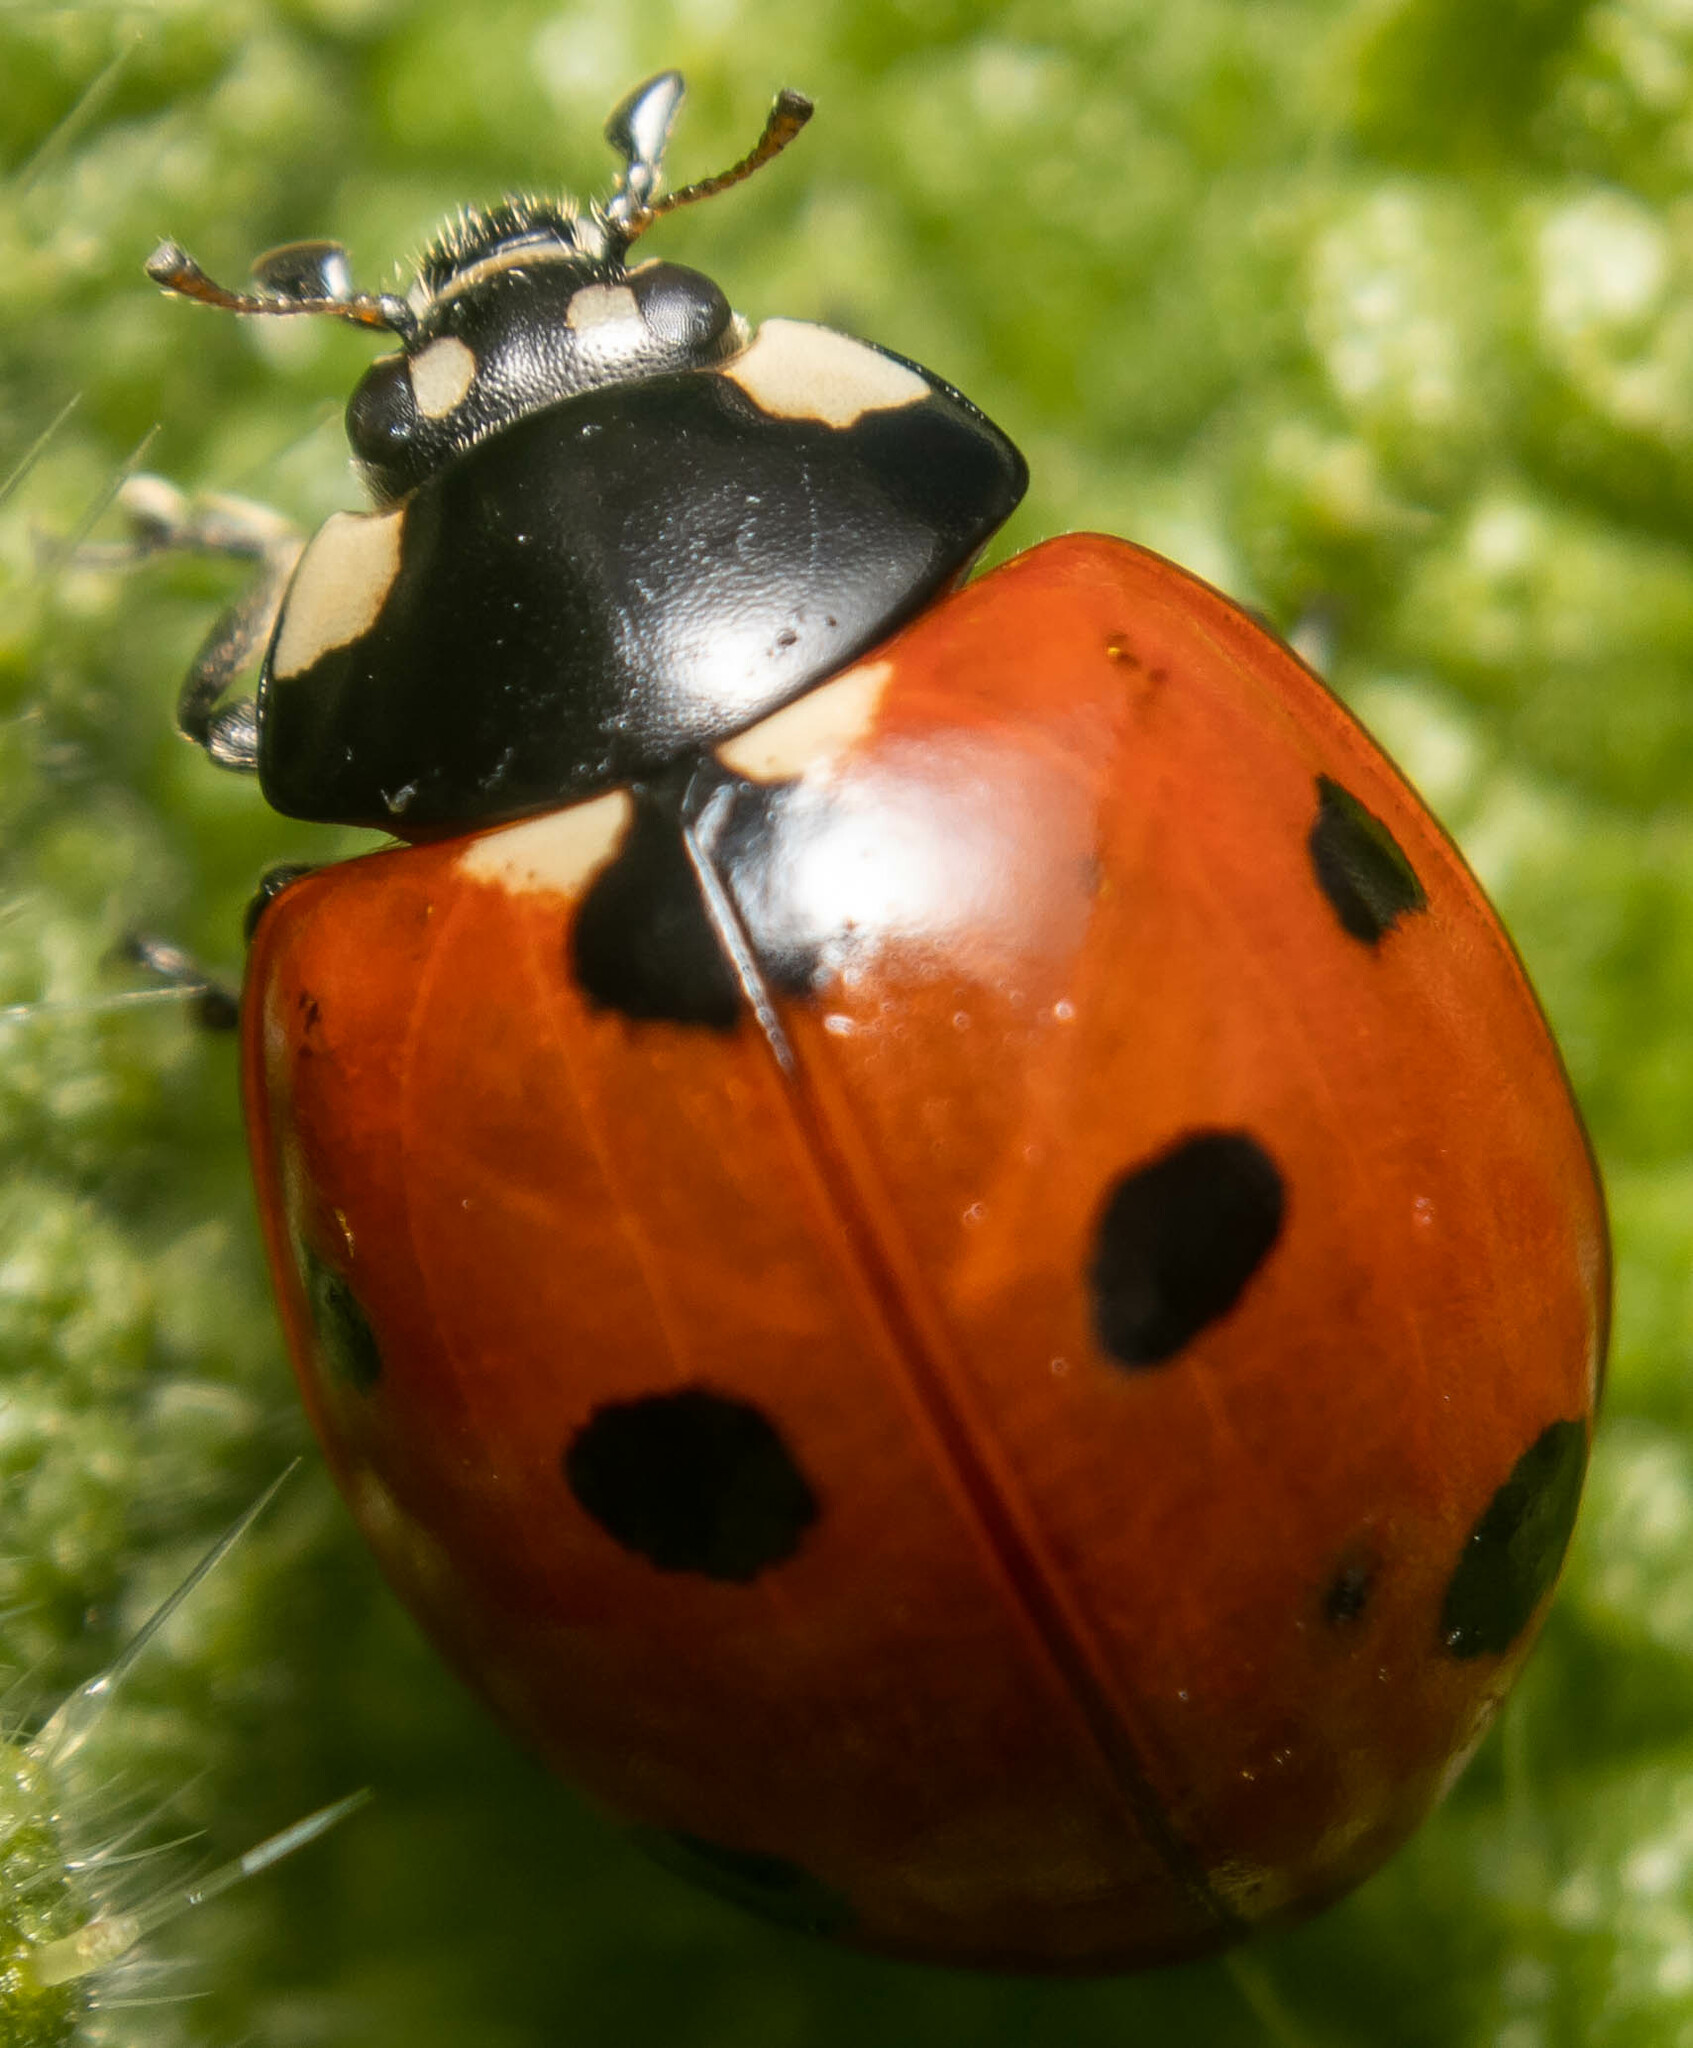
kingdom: Animalia
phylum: Arthropoda
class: Insecta
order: Coleoptera
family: Coccinellidae
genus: Coccinella
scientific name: Coccinella septempunctata
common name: Sevenspotted lady beetle
